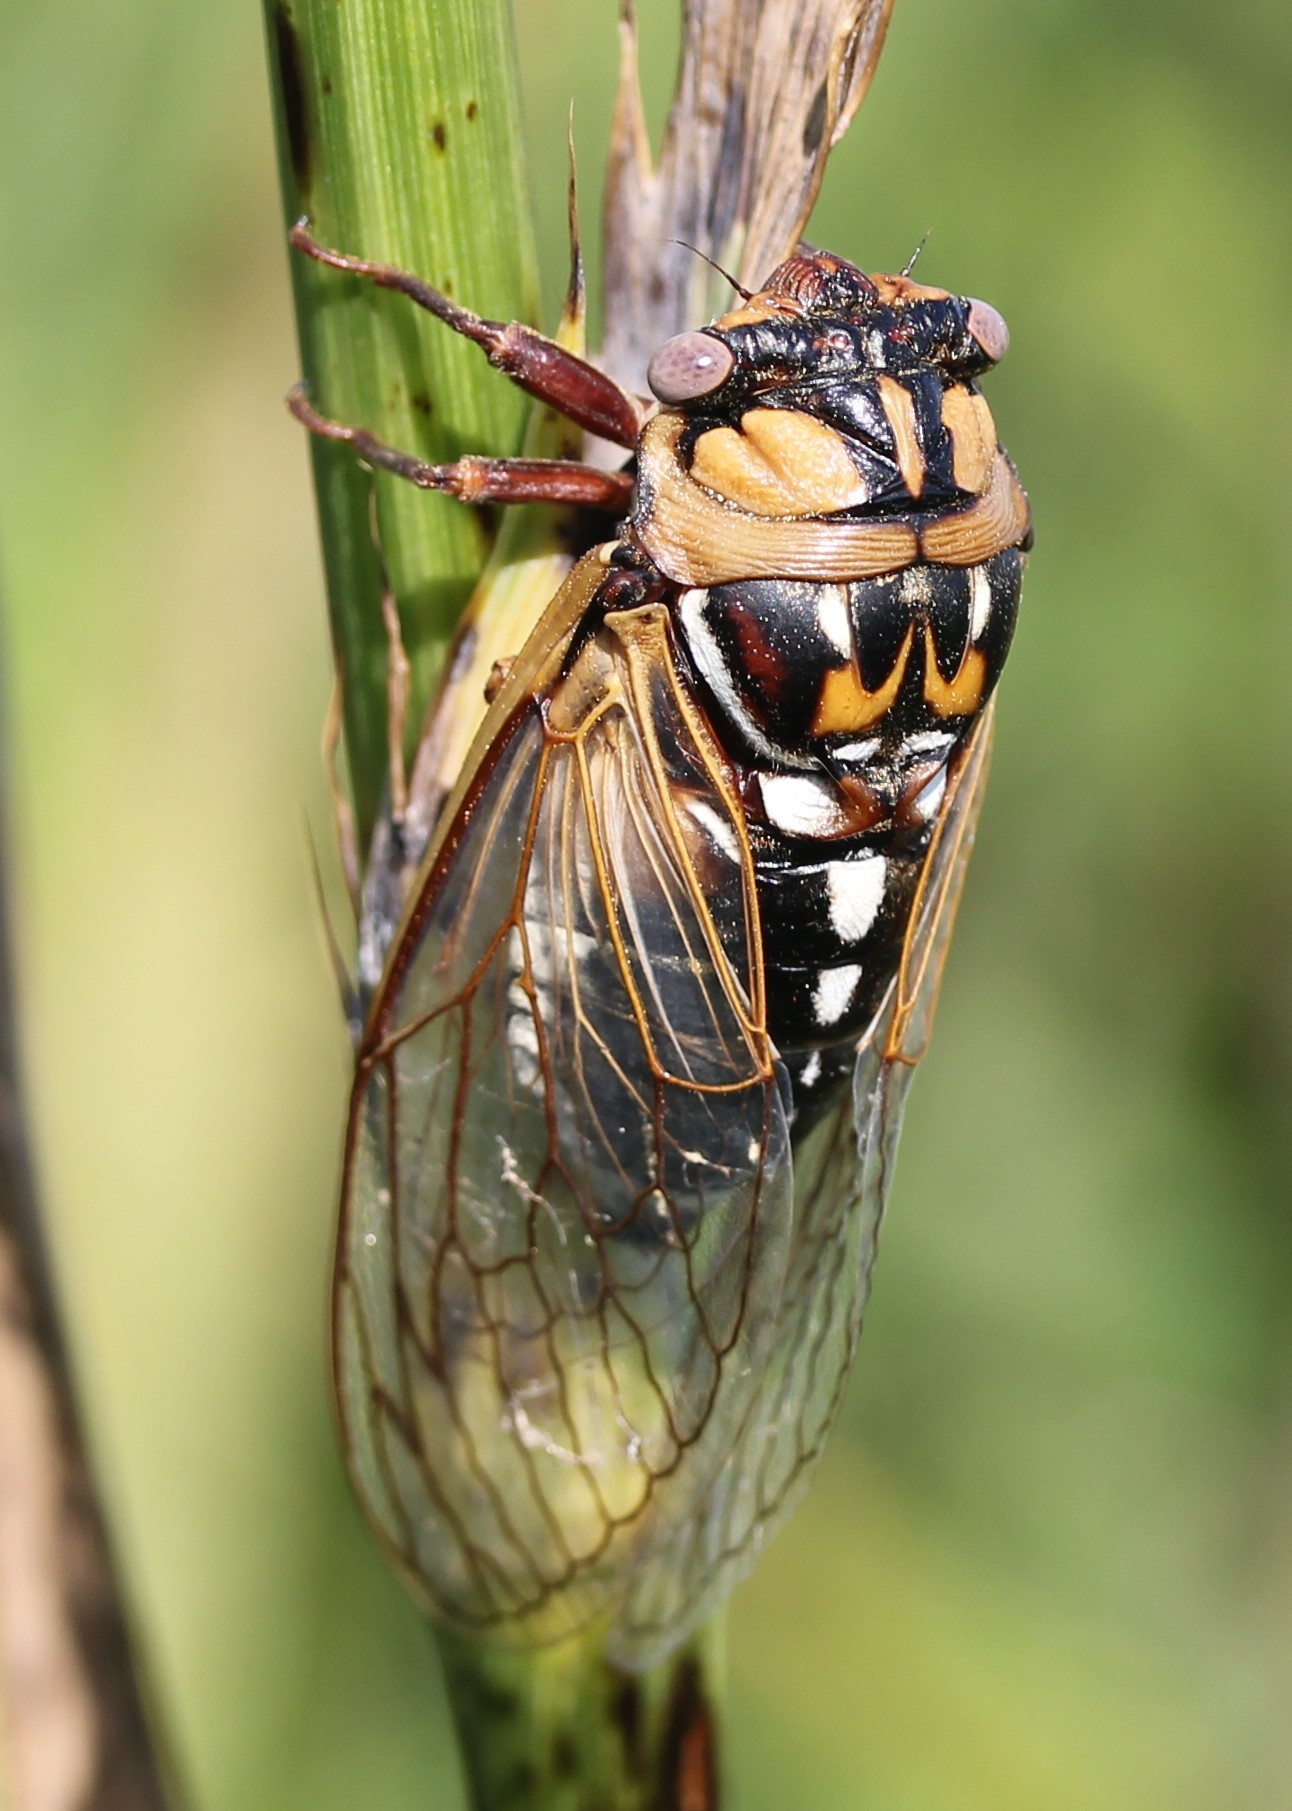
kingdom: Animalia
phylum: Arthropoda
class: Insecta
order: Hemiptera
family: Cicadidae
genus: Megatibicen
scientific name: Megatibicen dorsatus
